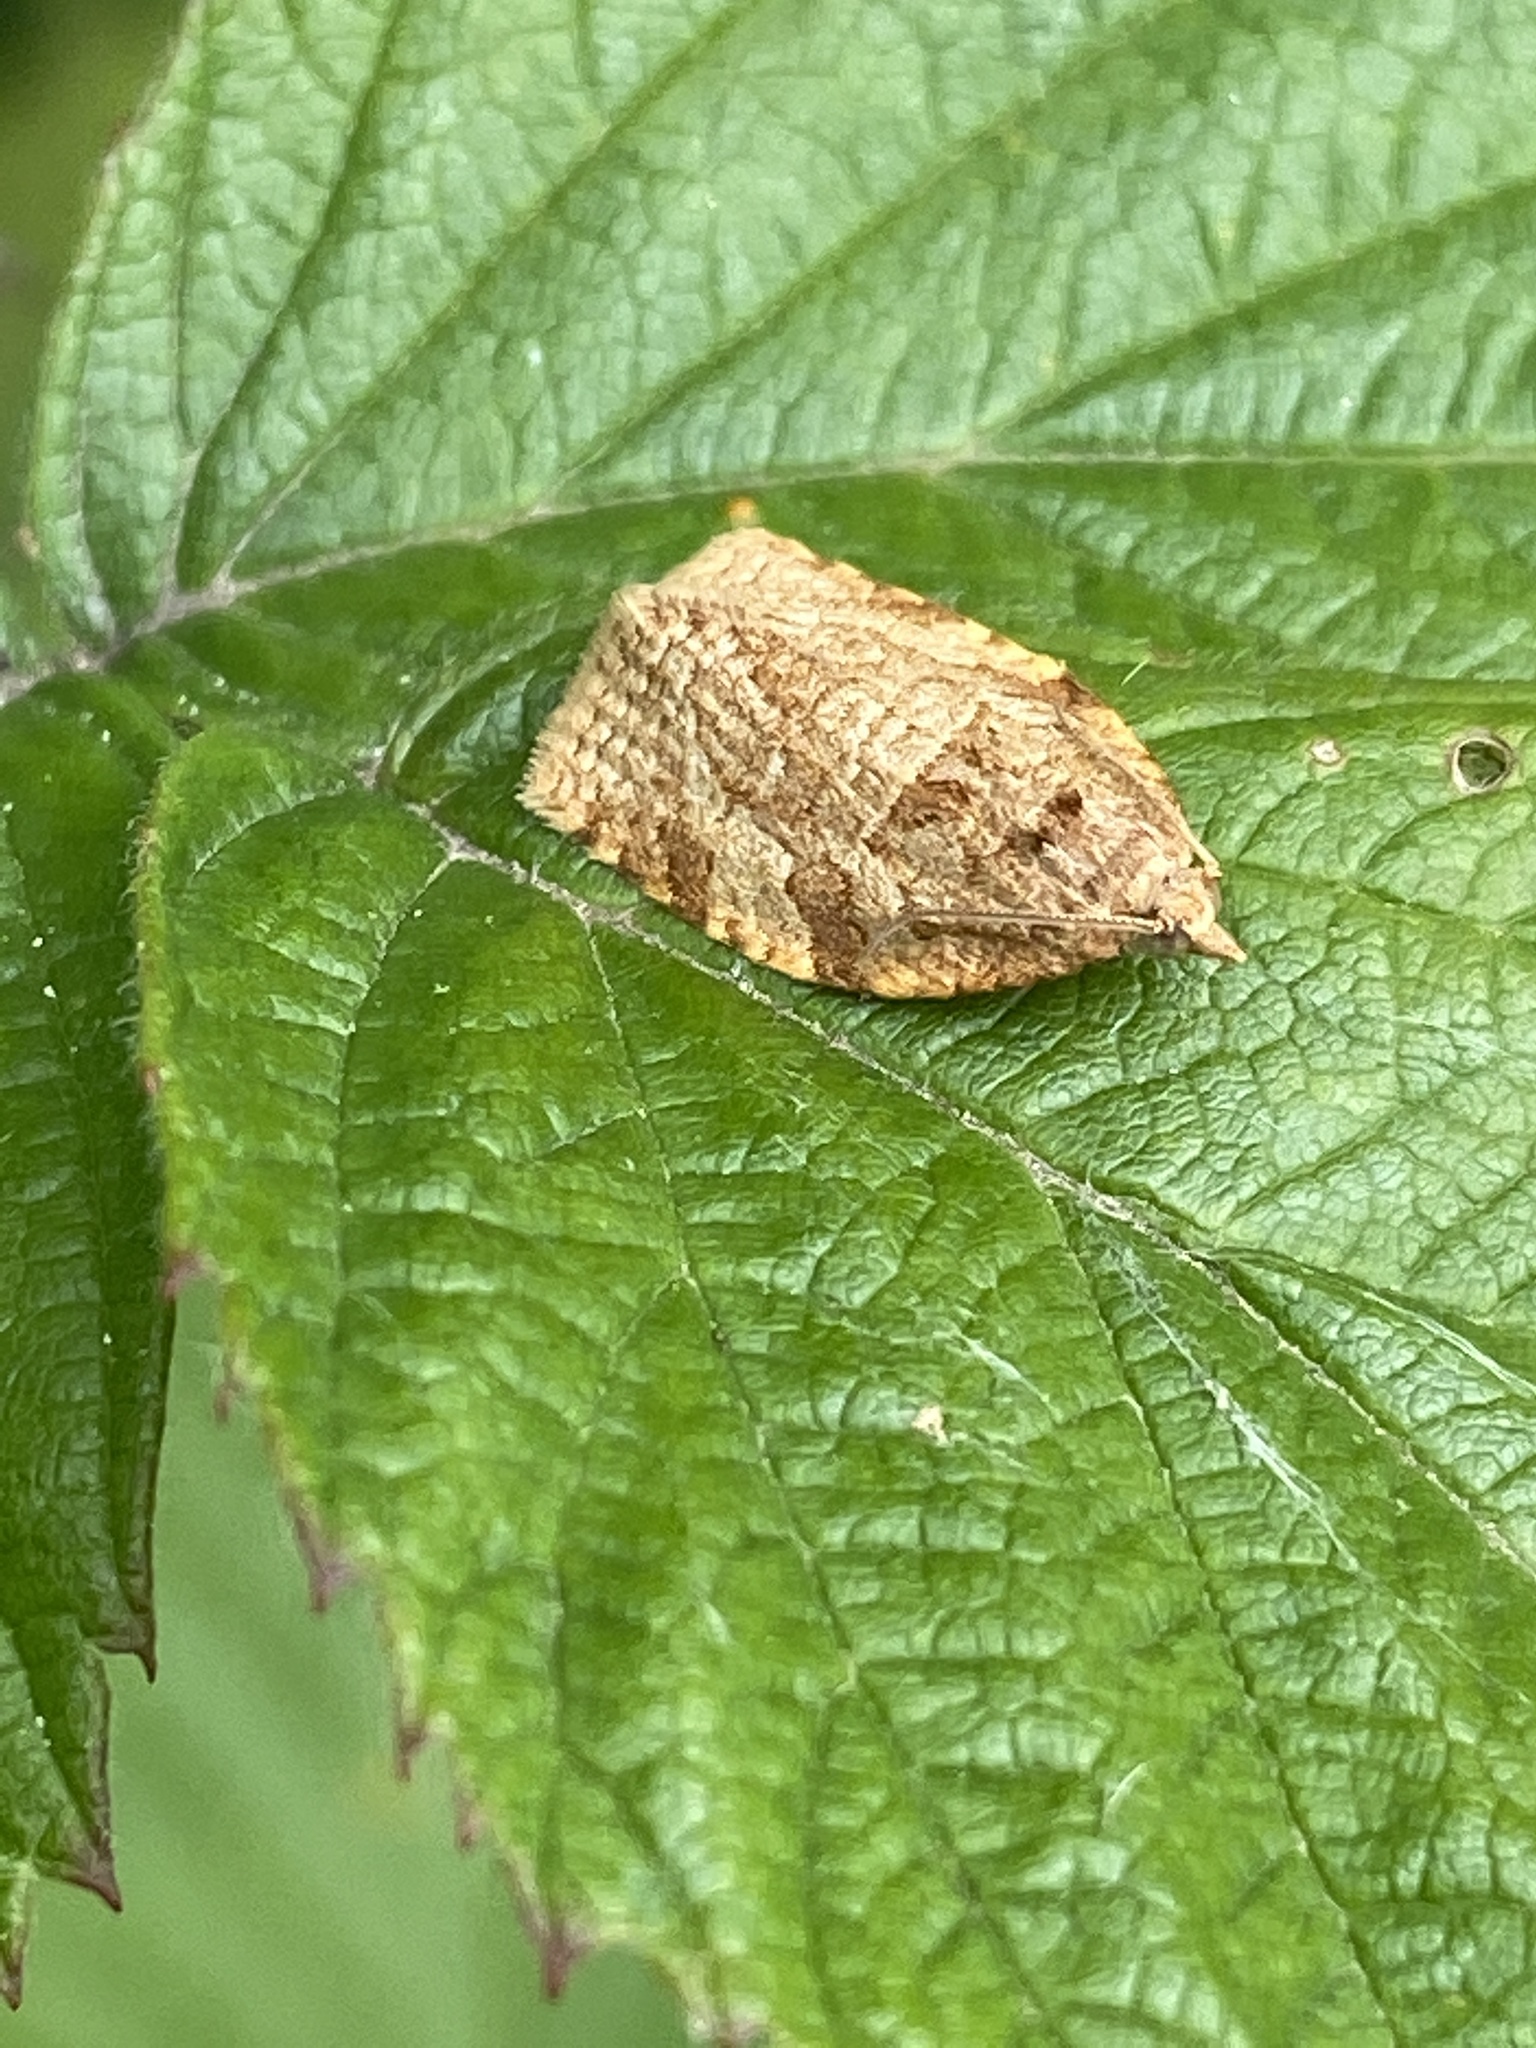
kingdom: Animalia
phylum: Arthropoda
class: Insecta
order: Lepidoptera
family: Tortricidae
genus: Adoxophyes
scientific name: Adoxophyes orana
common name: Summer fruit tortrix
